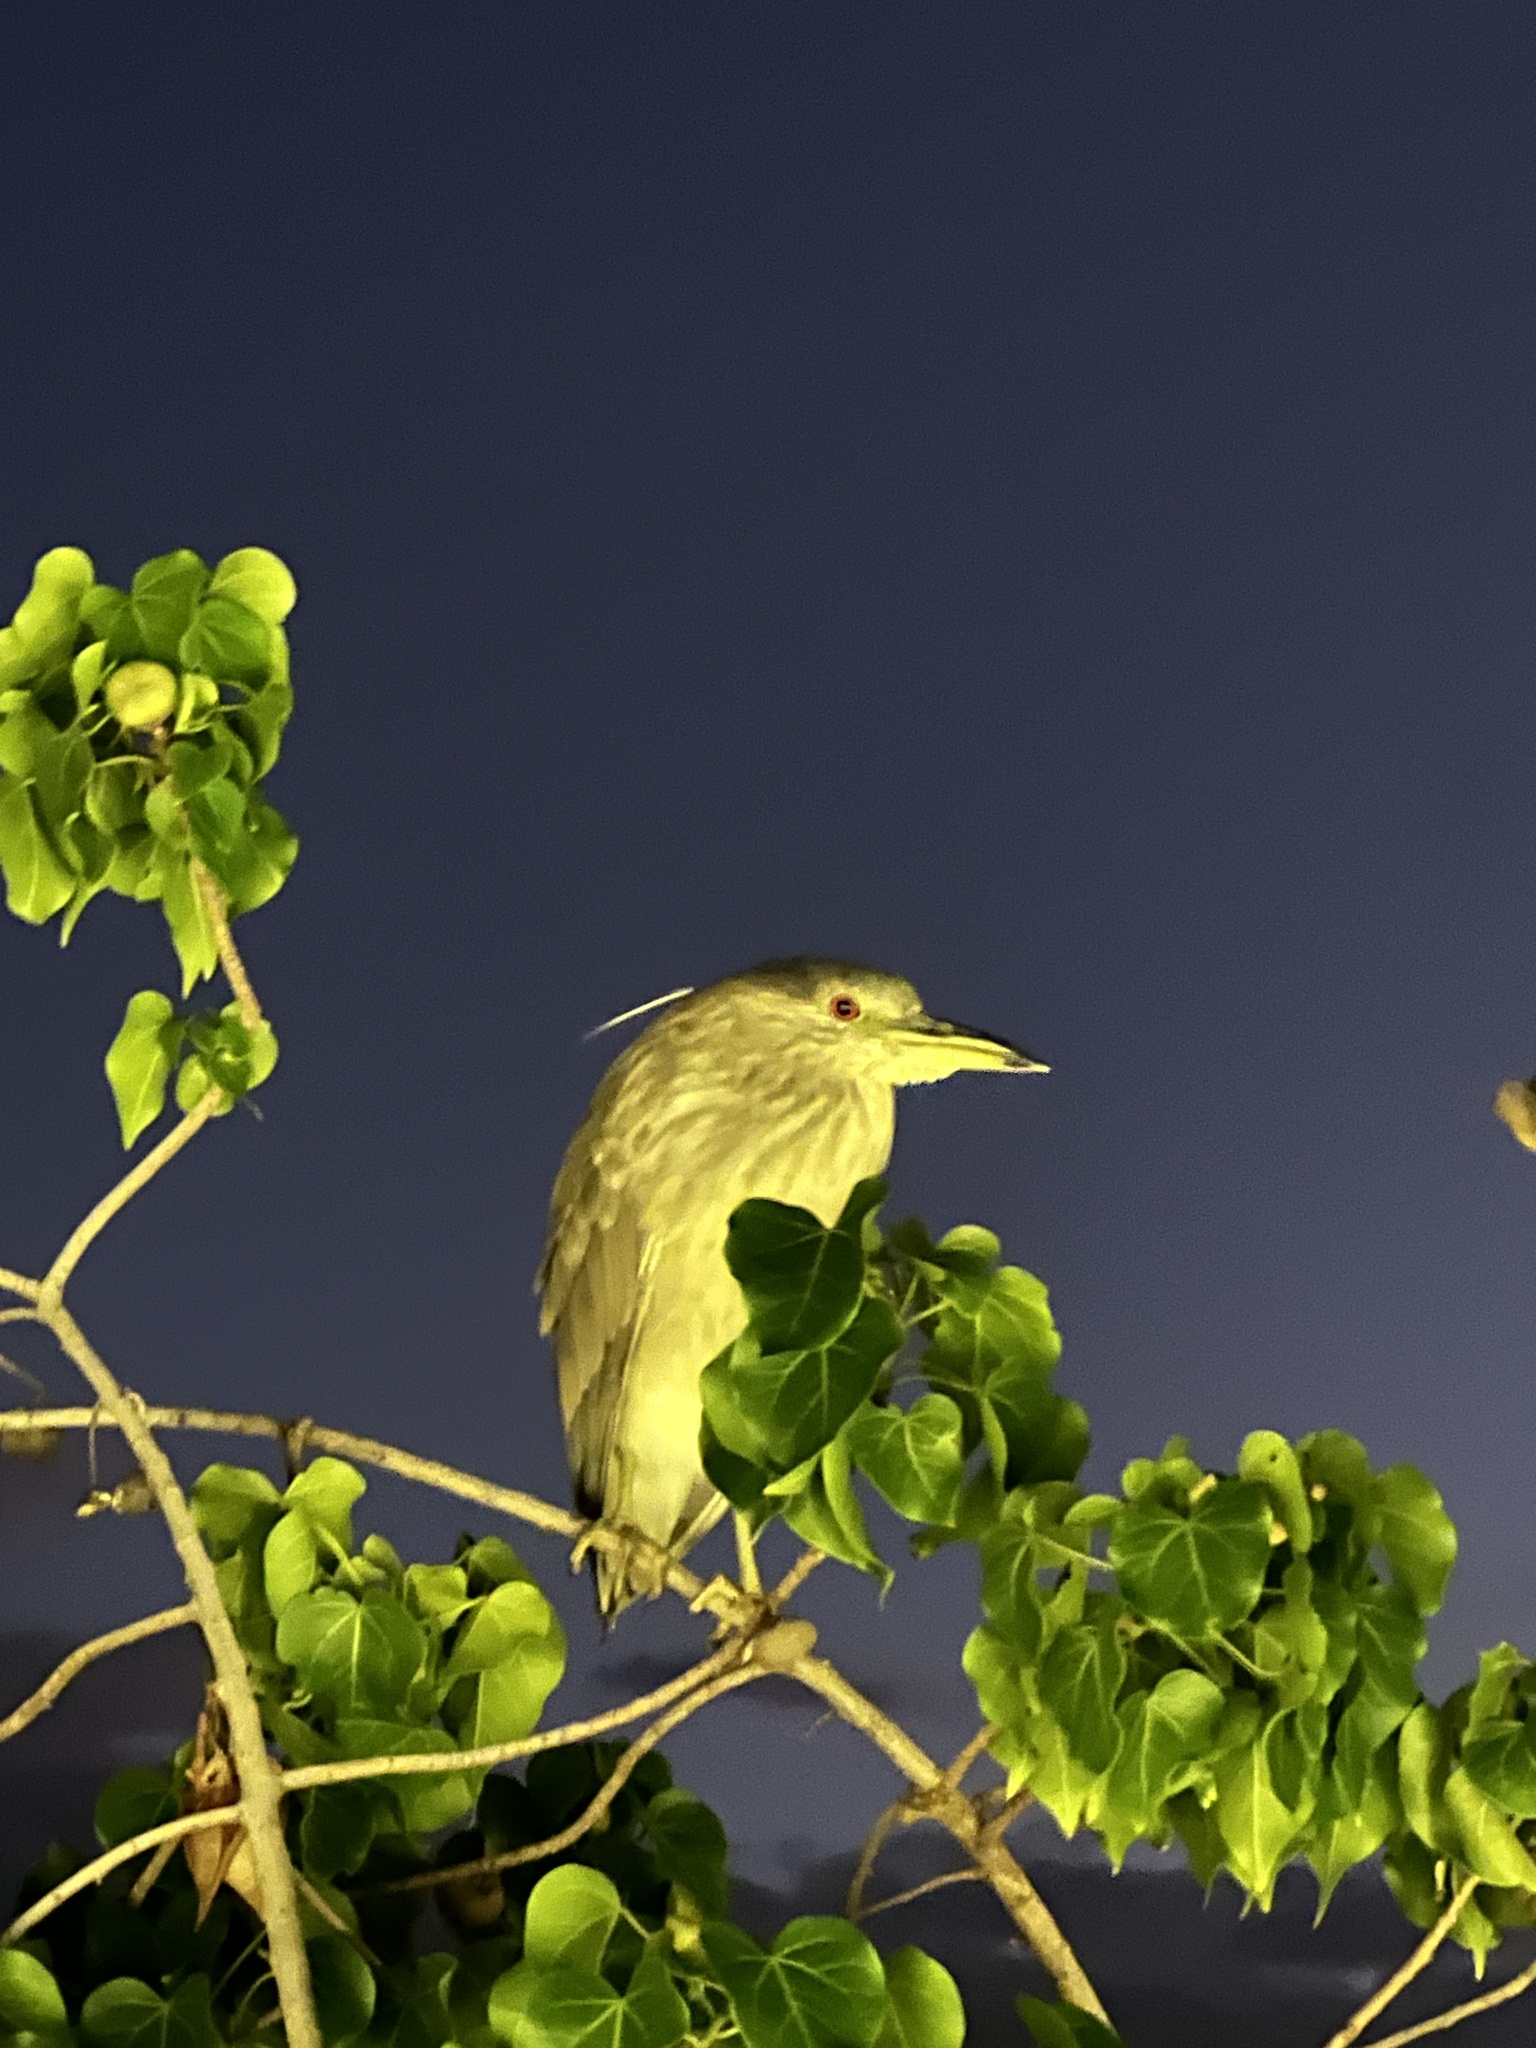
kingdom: Animalia
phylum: Chordata
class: Aves
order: Pelecaniformes
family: Ardeidae
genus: Nycticorax
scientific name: Nycticorax nycticorax
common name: Black-crowned night heron
